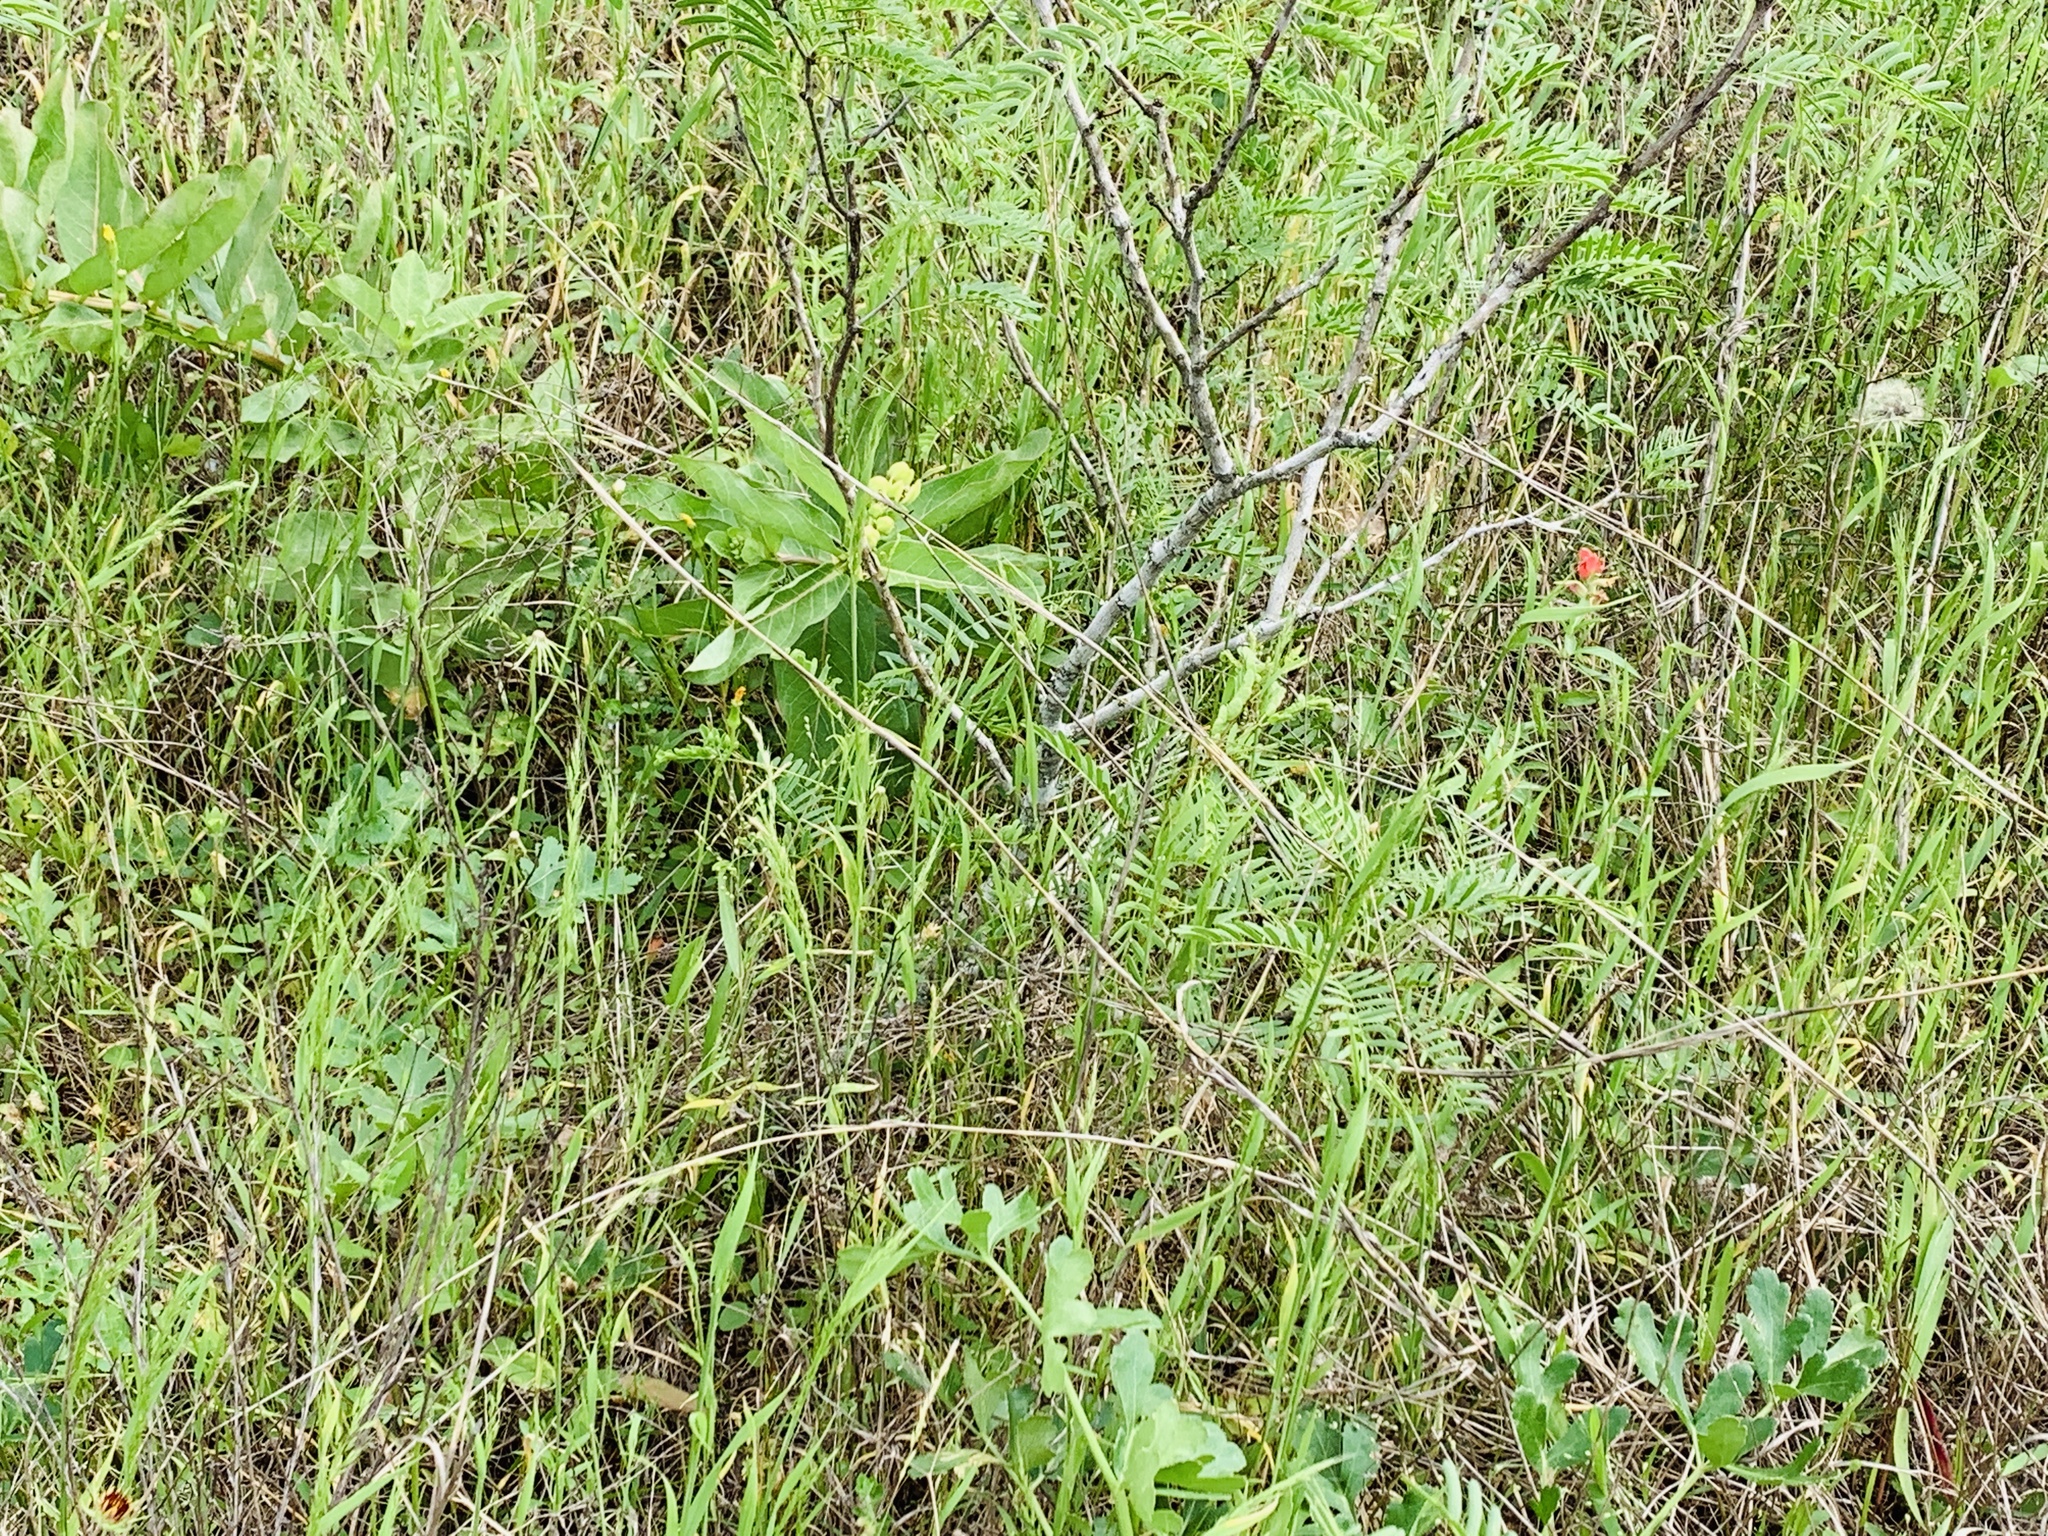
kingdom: Plantae
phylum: Tracheophyta
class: Magnoliopsida
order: Gentianales
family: Apocynaceae
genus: Asclepias
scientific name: Asclepias viridis
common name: Antelope-horns
